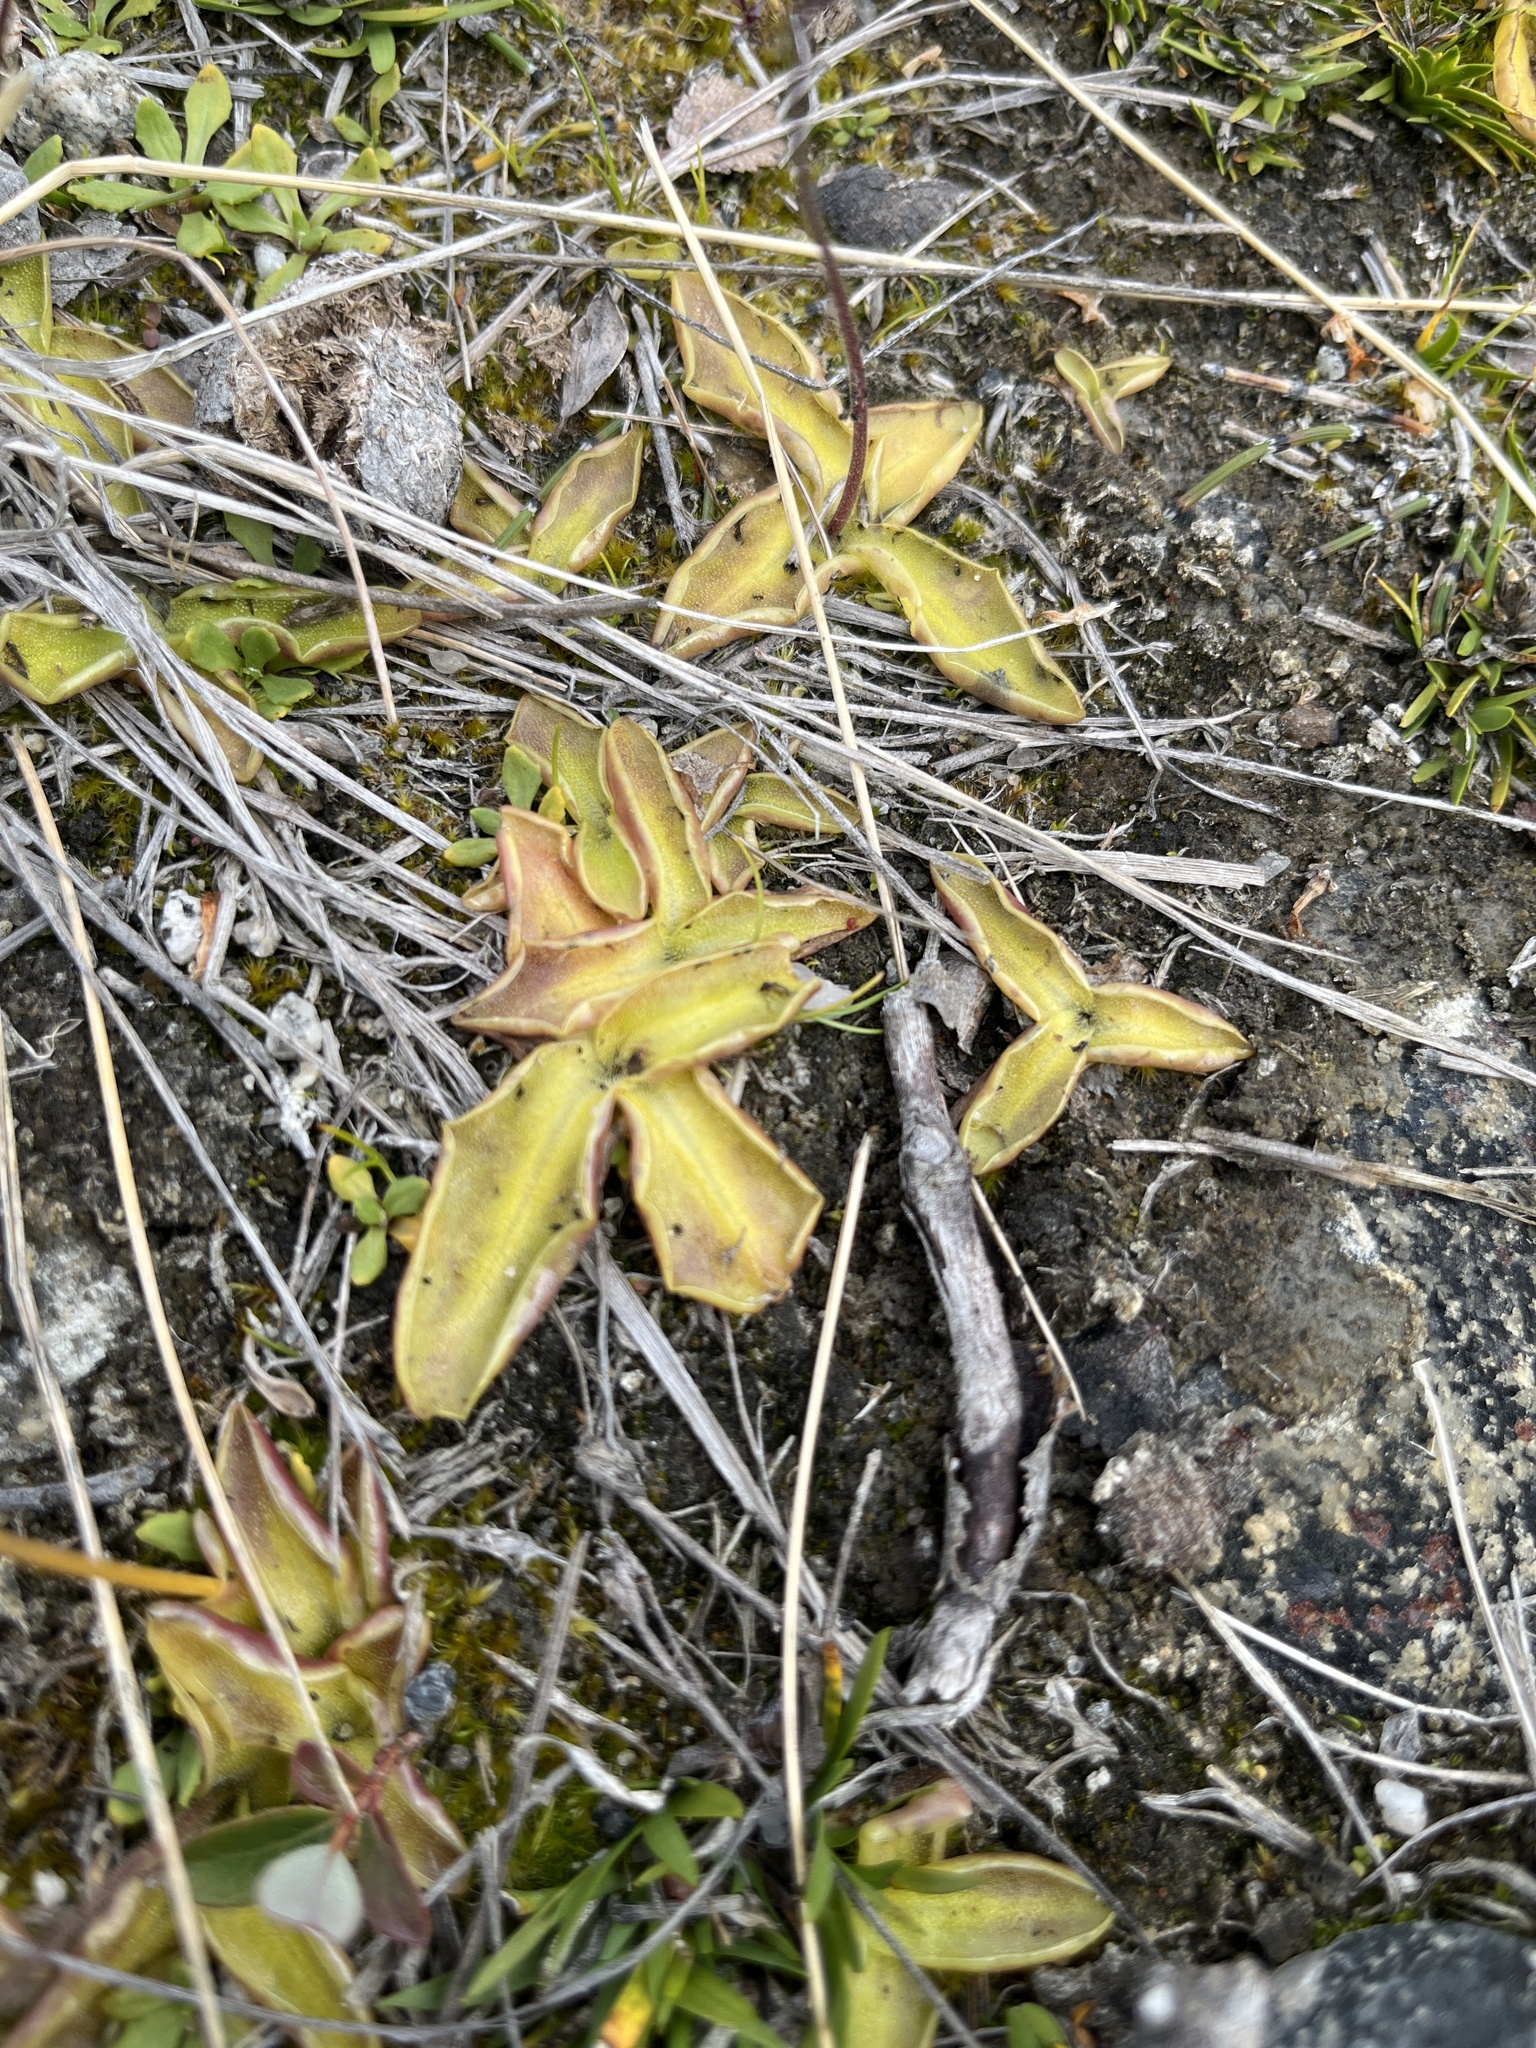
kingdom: Plantae
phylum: Tracheophyta
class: Magnoliopsida
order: Lamiales
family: Lentibulariaceae
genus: Pinguicula
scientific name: Pinguicula vulgaris
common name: Common butterwort
